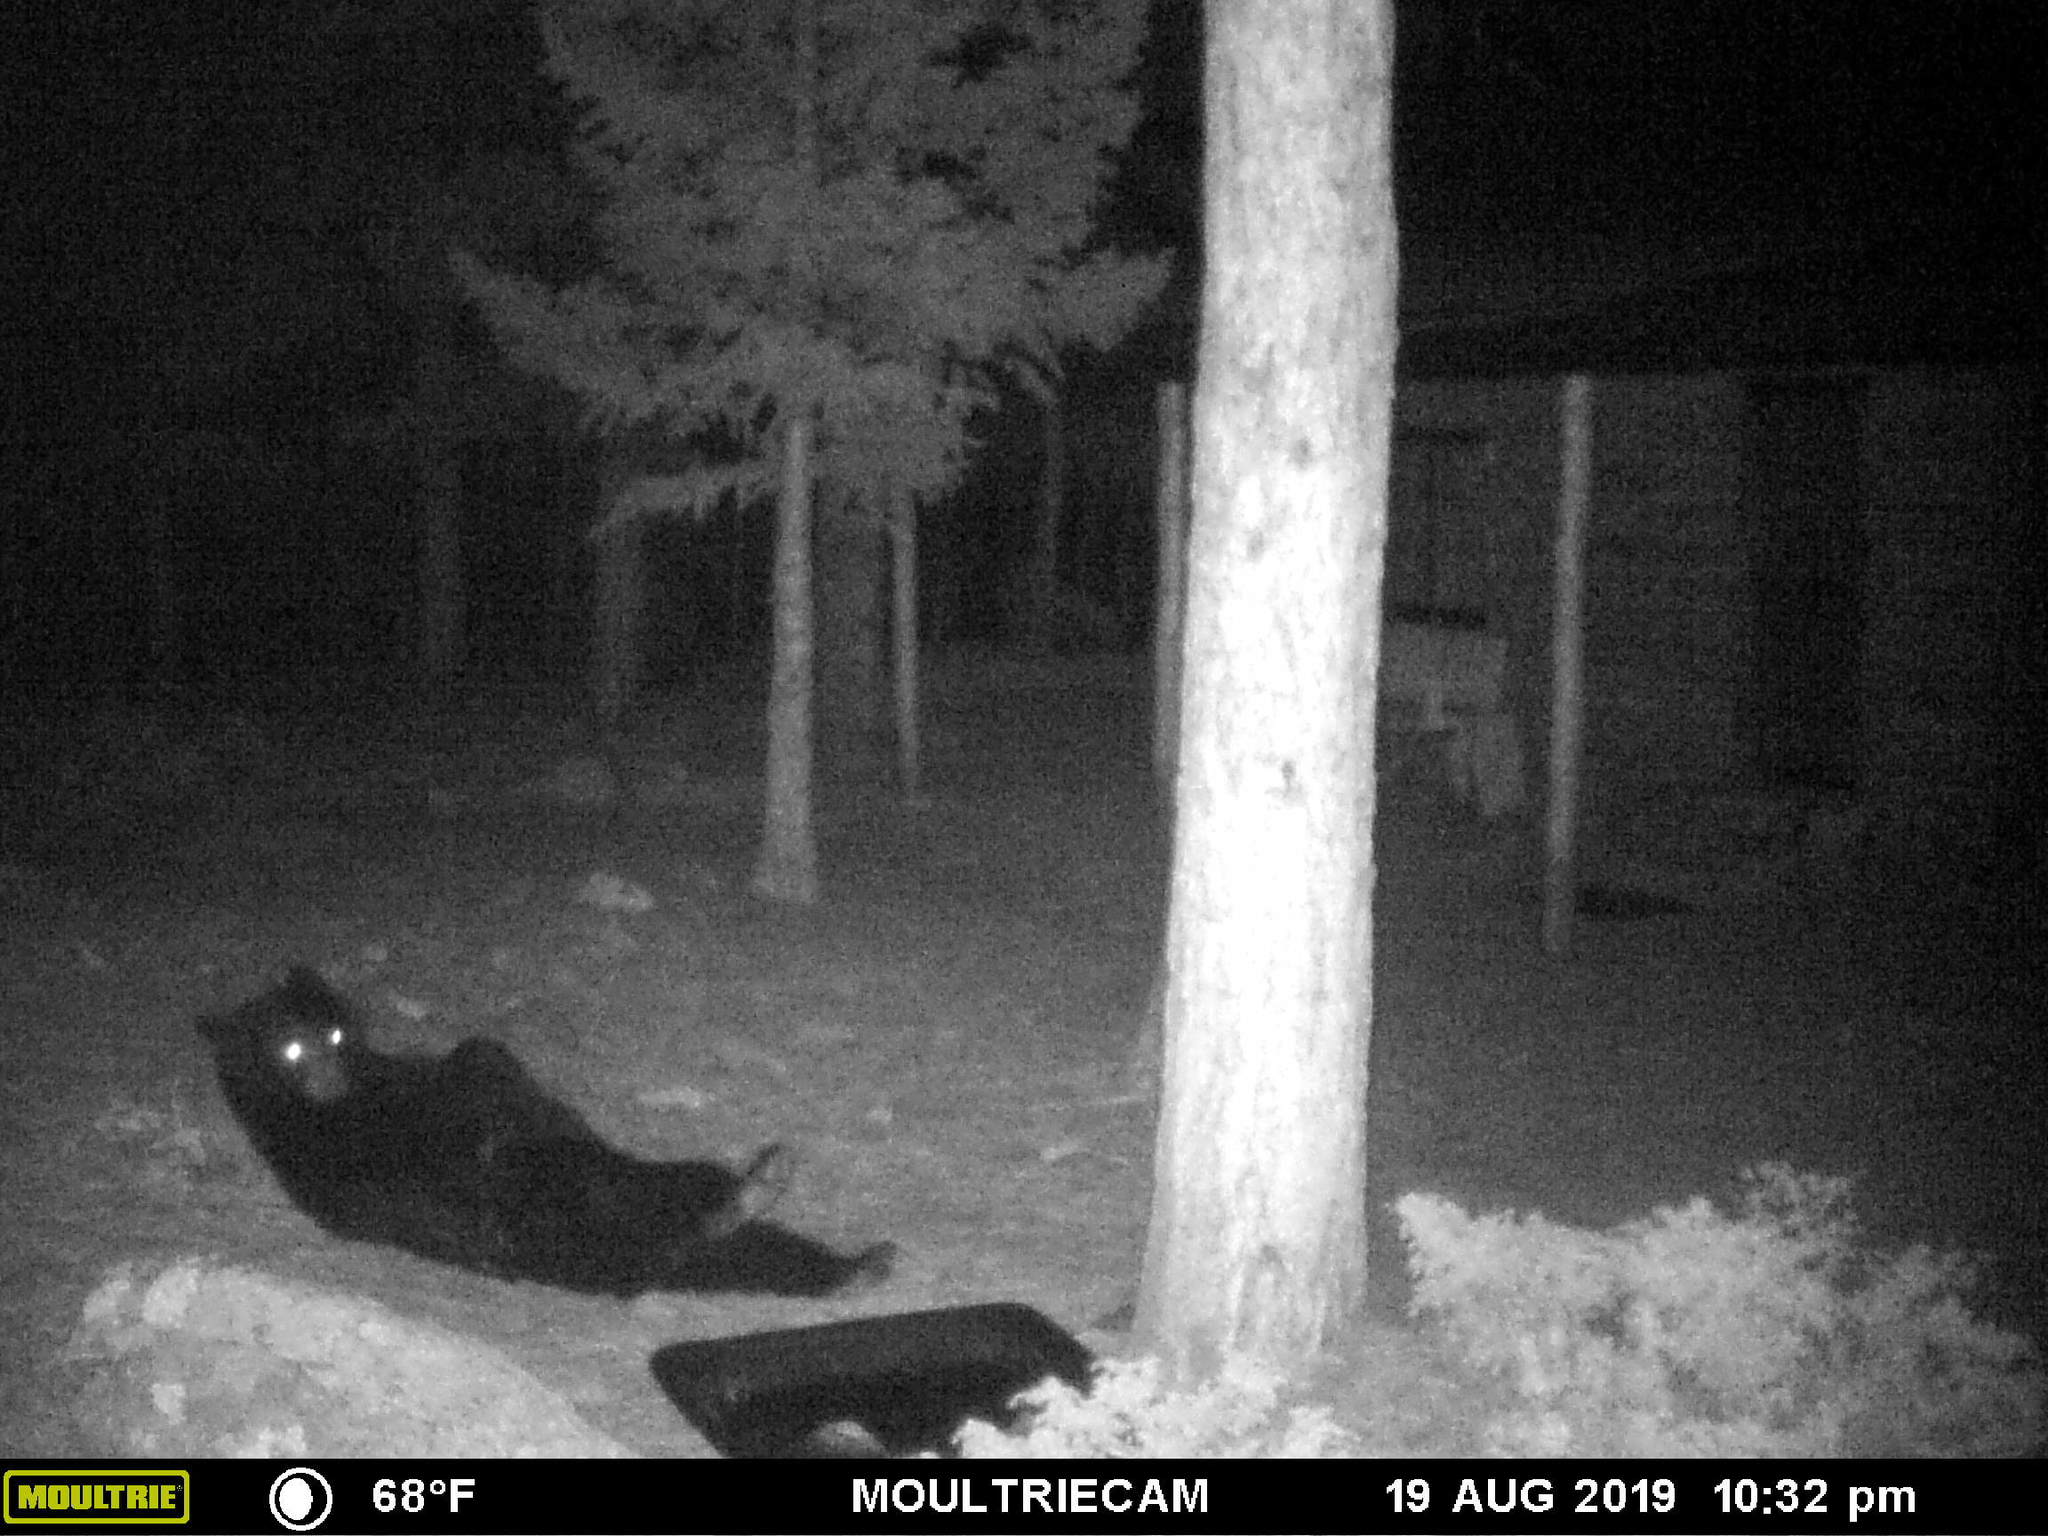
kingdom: Animalia
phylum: Chordata
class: Mammalia
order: Carnivora
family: Ursidae
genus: Ursus
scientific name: Ursus americanus
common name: American black bear
